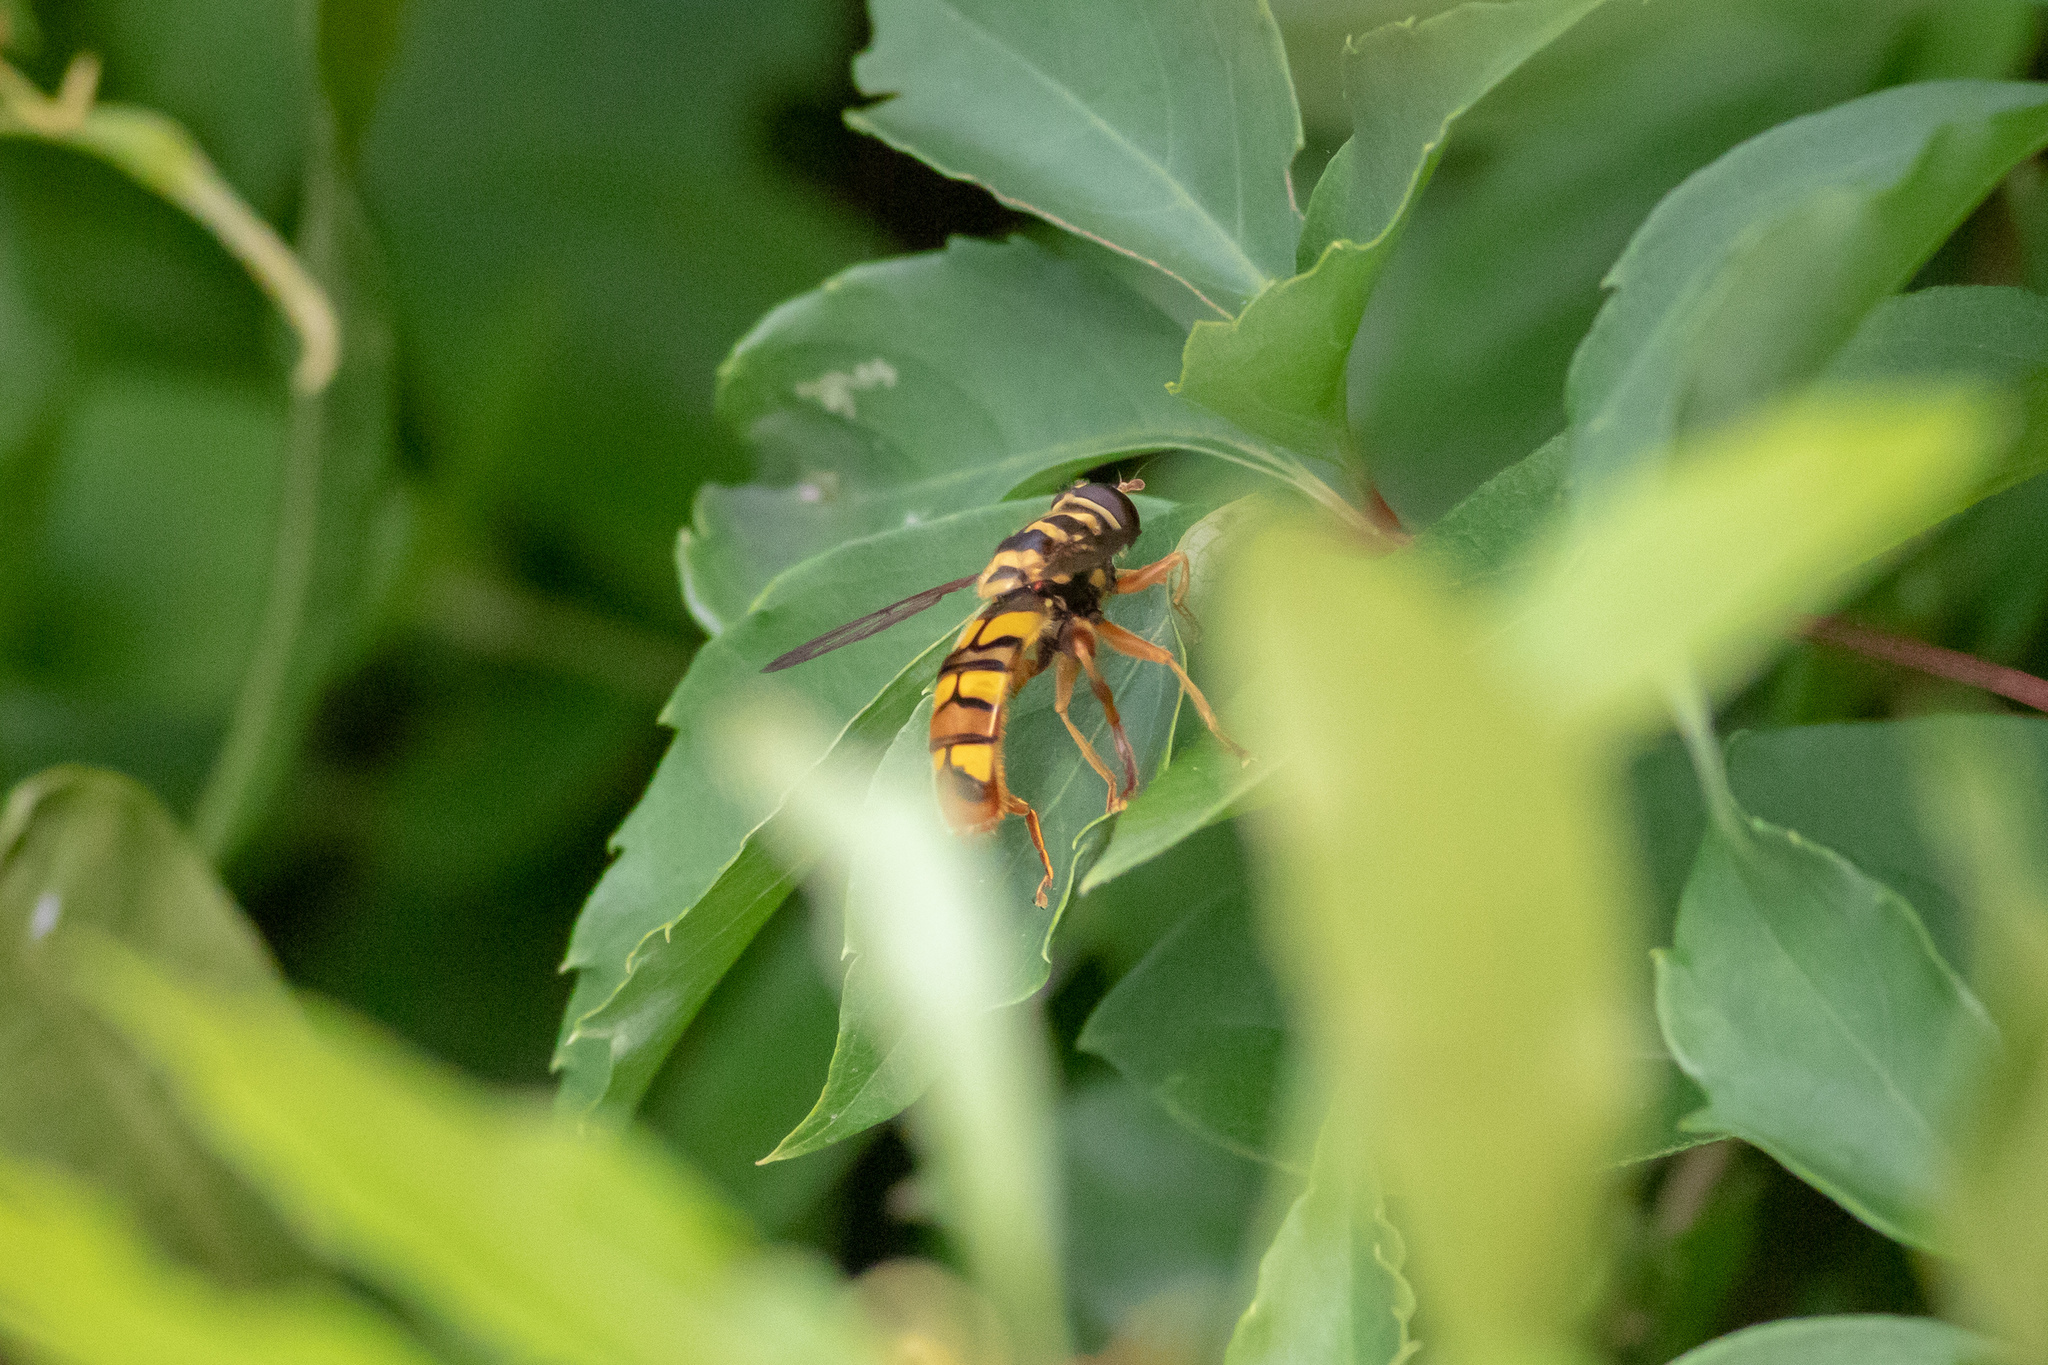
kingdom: Animalia
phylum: Arthropoda
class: Insecta
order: Diptera
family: Syrphidae
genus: Milesia
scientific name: Milesia virginiensis
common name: Virginia giant
